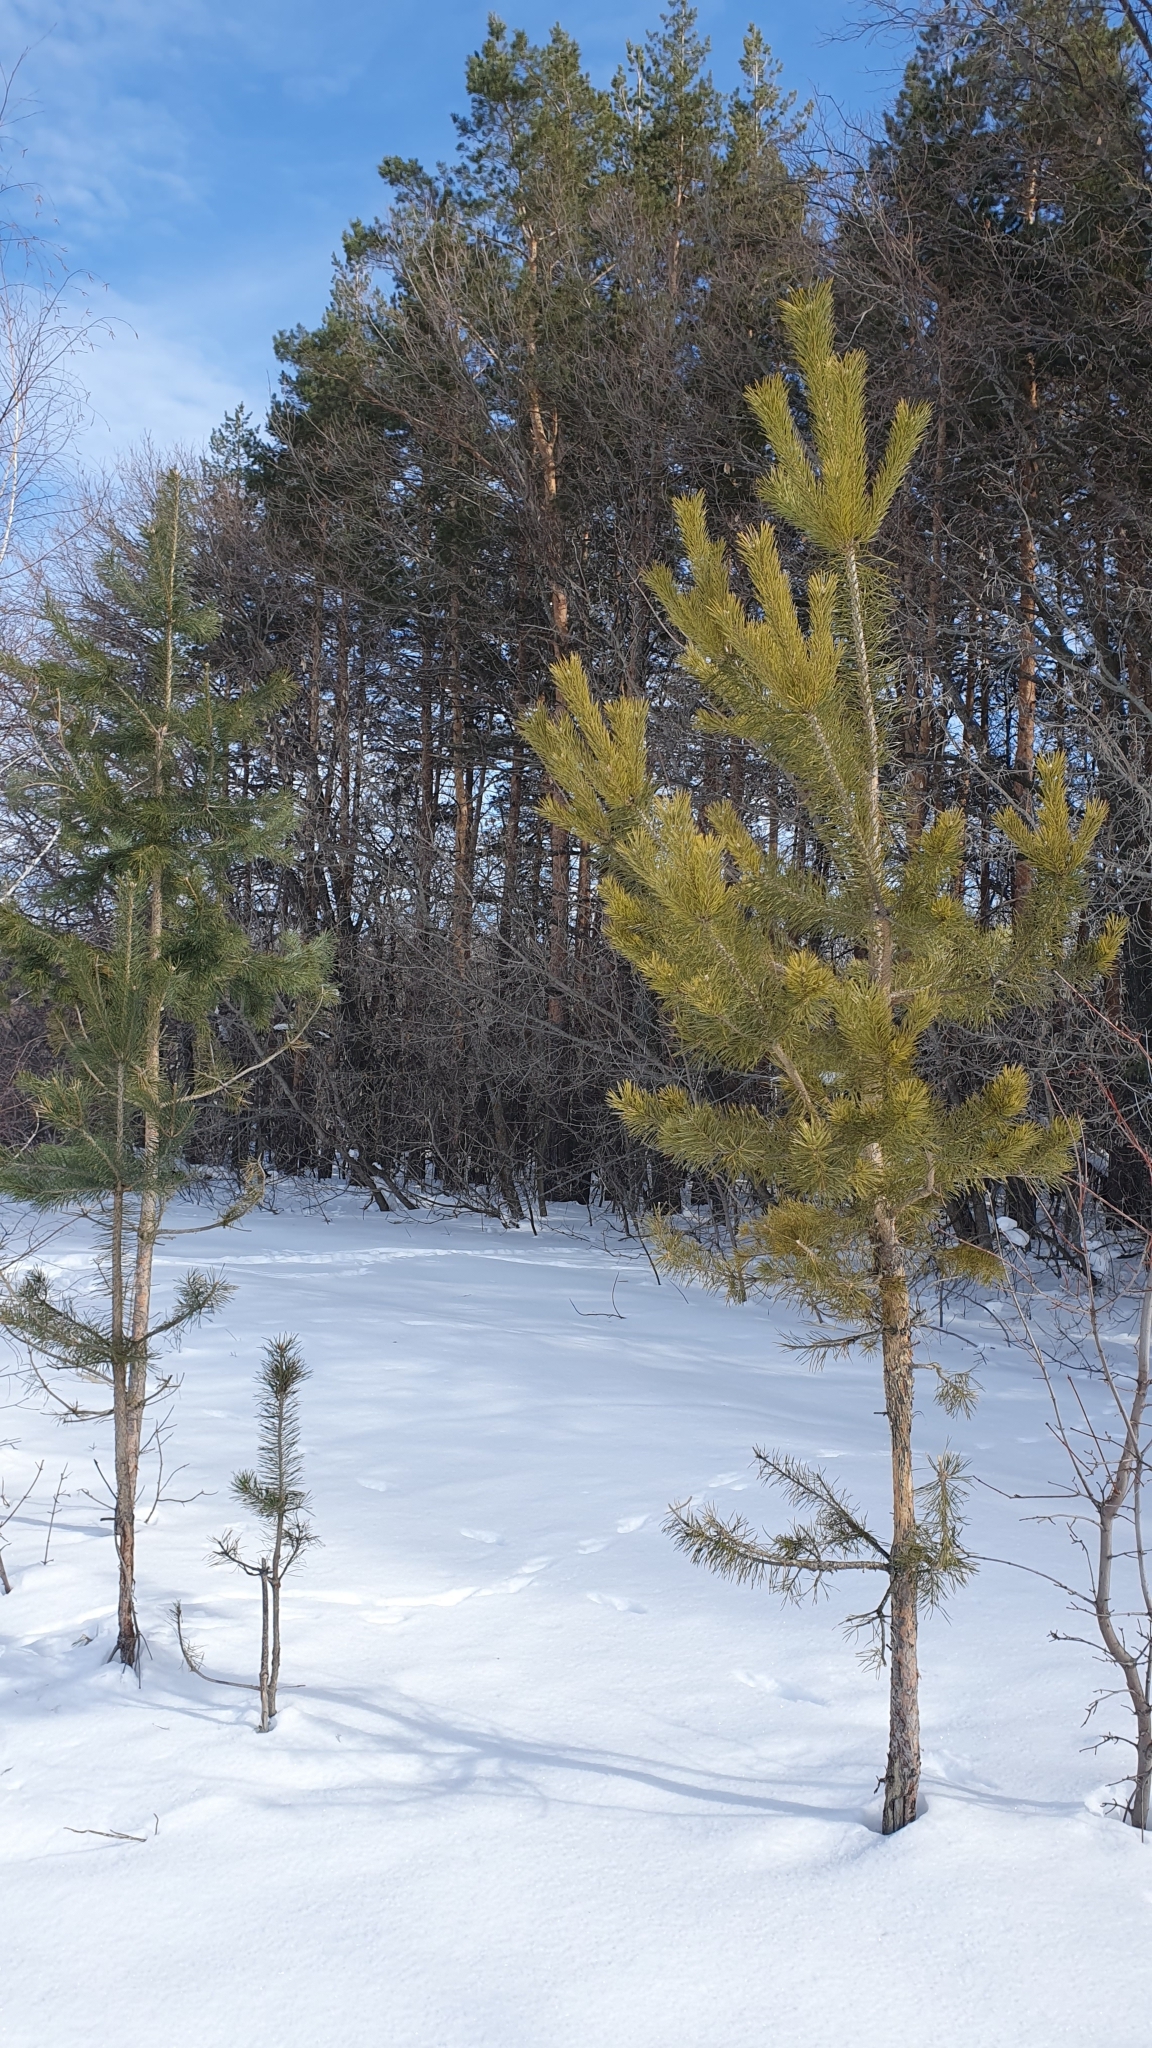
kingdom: Plantae
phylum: Tracheophyta
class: Pinopsida
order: Pinales
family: Pinaceae
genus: Pinus
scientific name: Pinus sylvestris
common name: Scots pine
